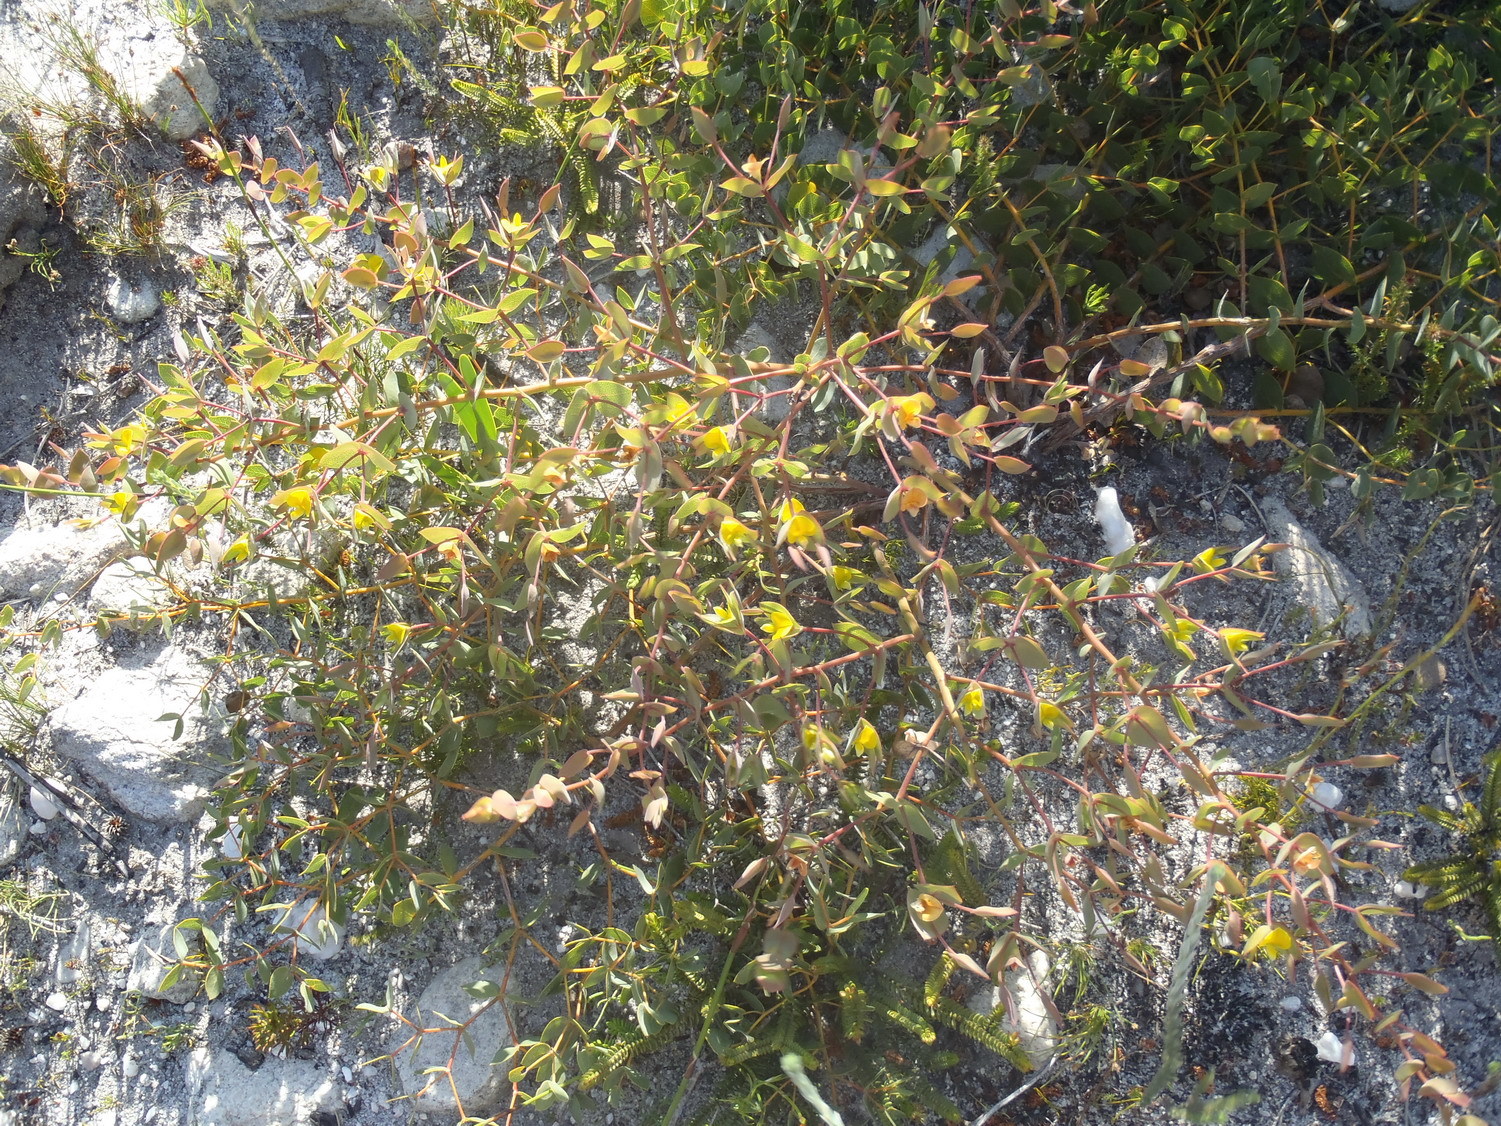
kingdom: Plantae
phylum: Tracheophyta
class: Magnoliopsida
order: Fabales
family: Fabaceae
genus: Rafnia
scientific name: Rafnia acuminata
